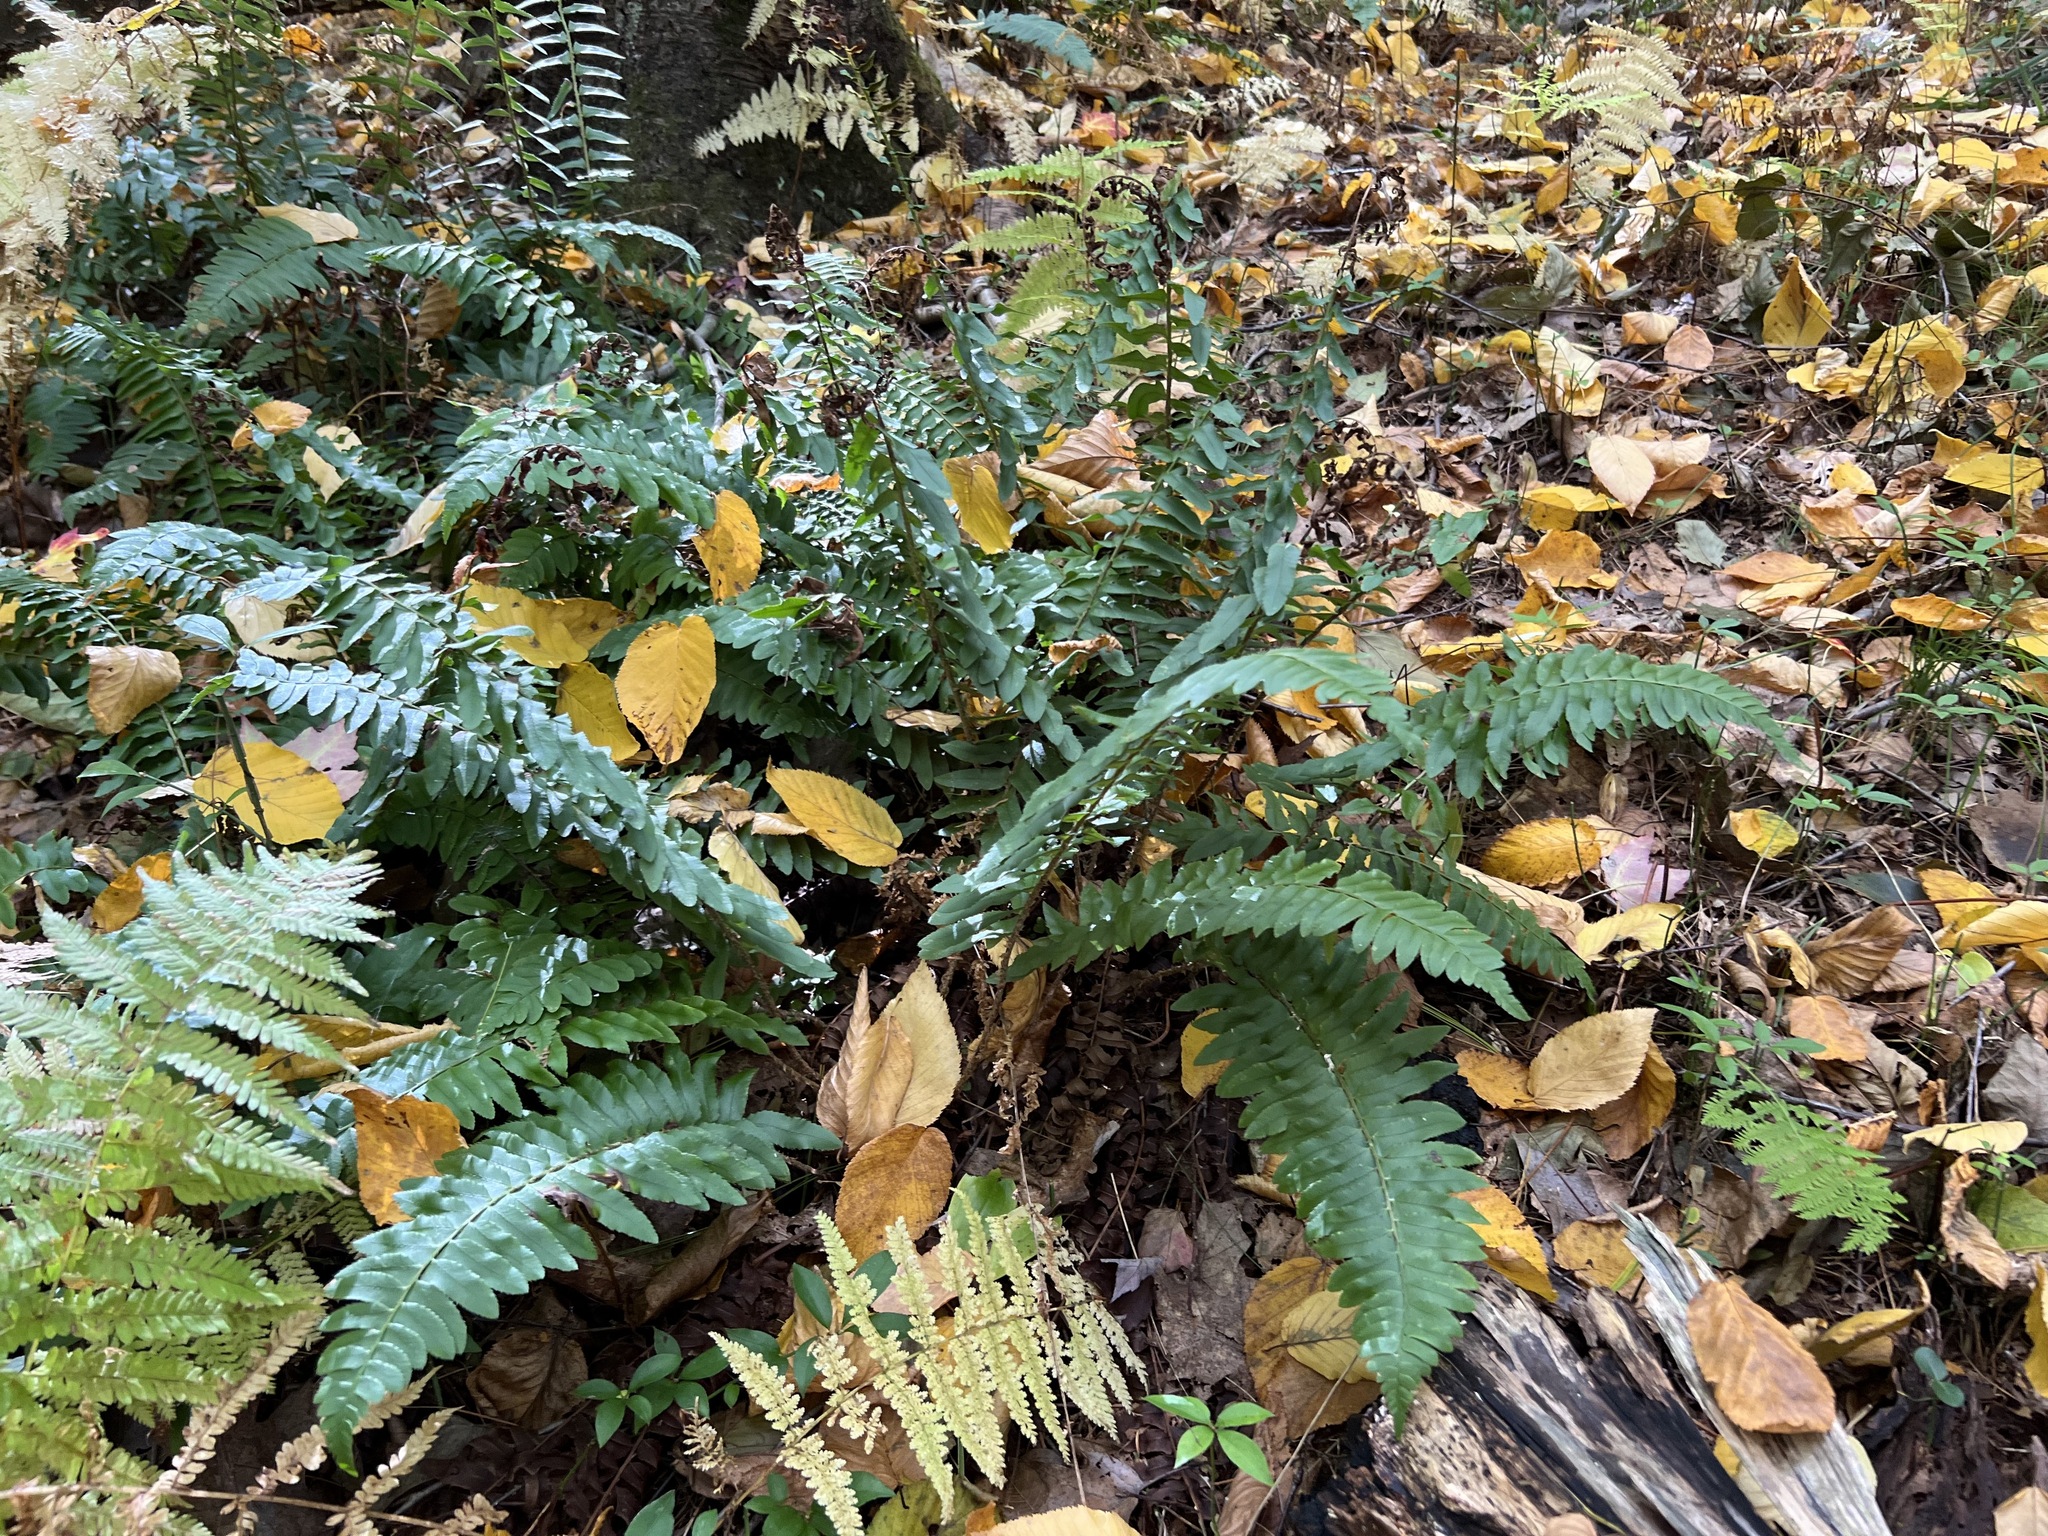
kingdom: Plantae
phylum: Tracheophyta
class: Polypodiopsida
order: Polypodiales
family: Dryopteridaceae
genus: Polystichum
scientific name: Polystichum acrostichoides
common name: Christmas fern
